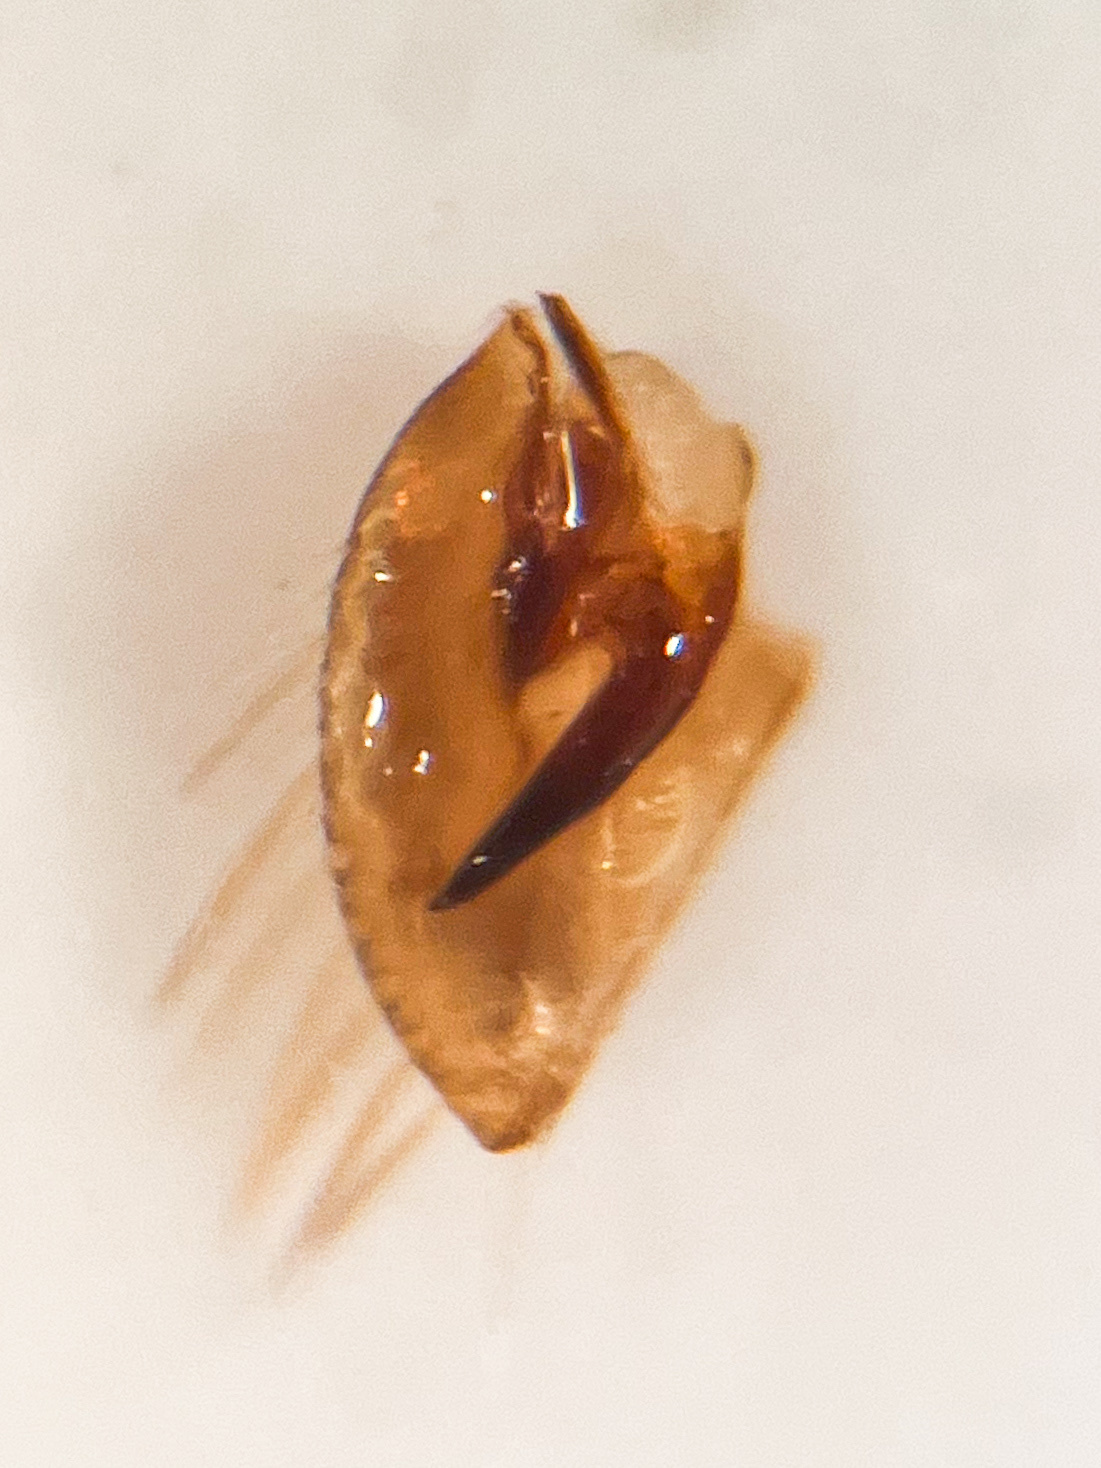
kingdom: Animalia
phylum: Arthropoda
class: Insecta
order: Hemiptera
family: Cicadellidae
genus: Maiestas
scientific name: Maiestas horvathi
